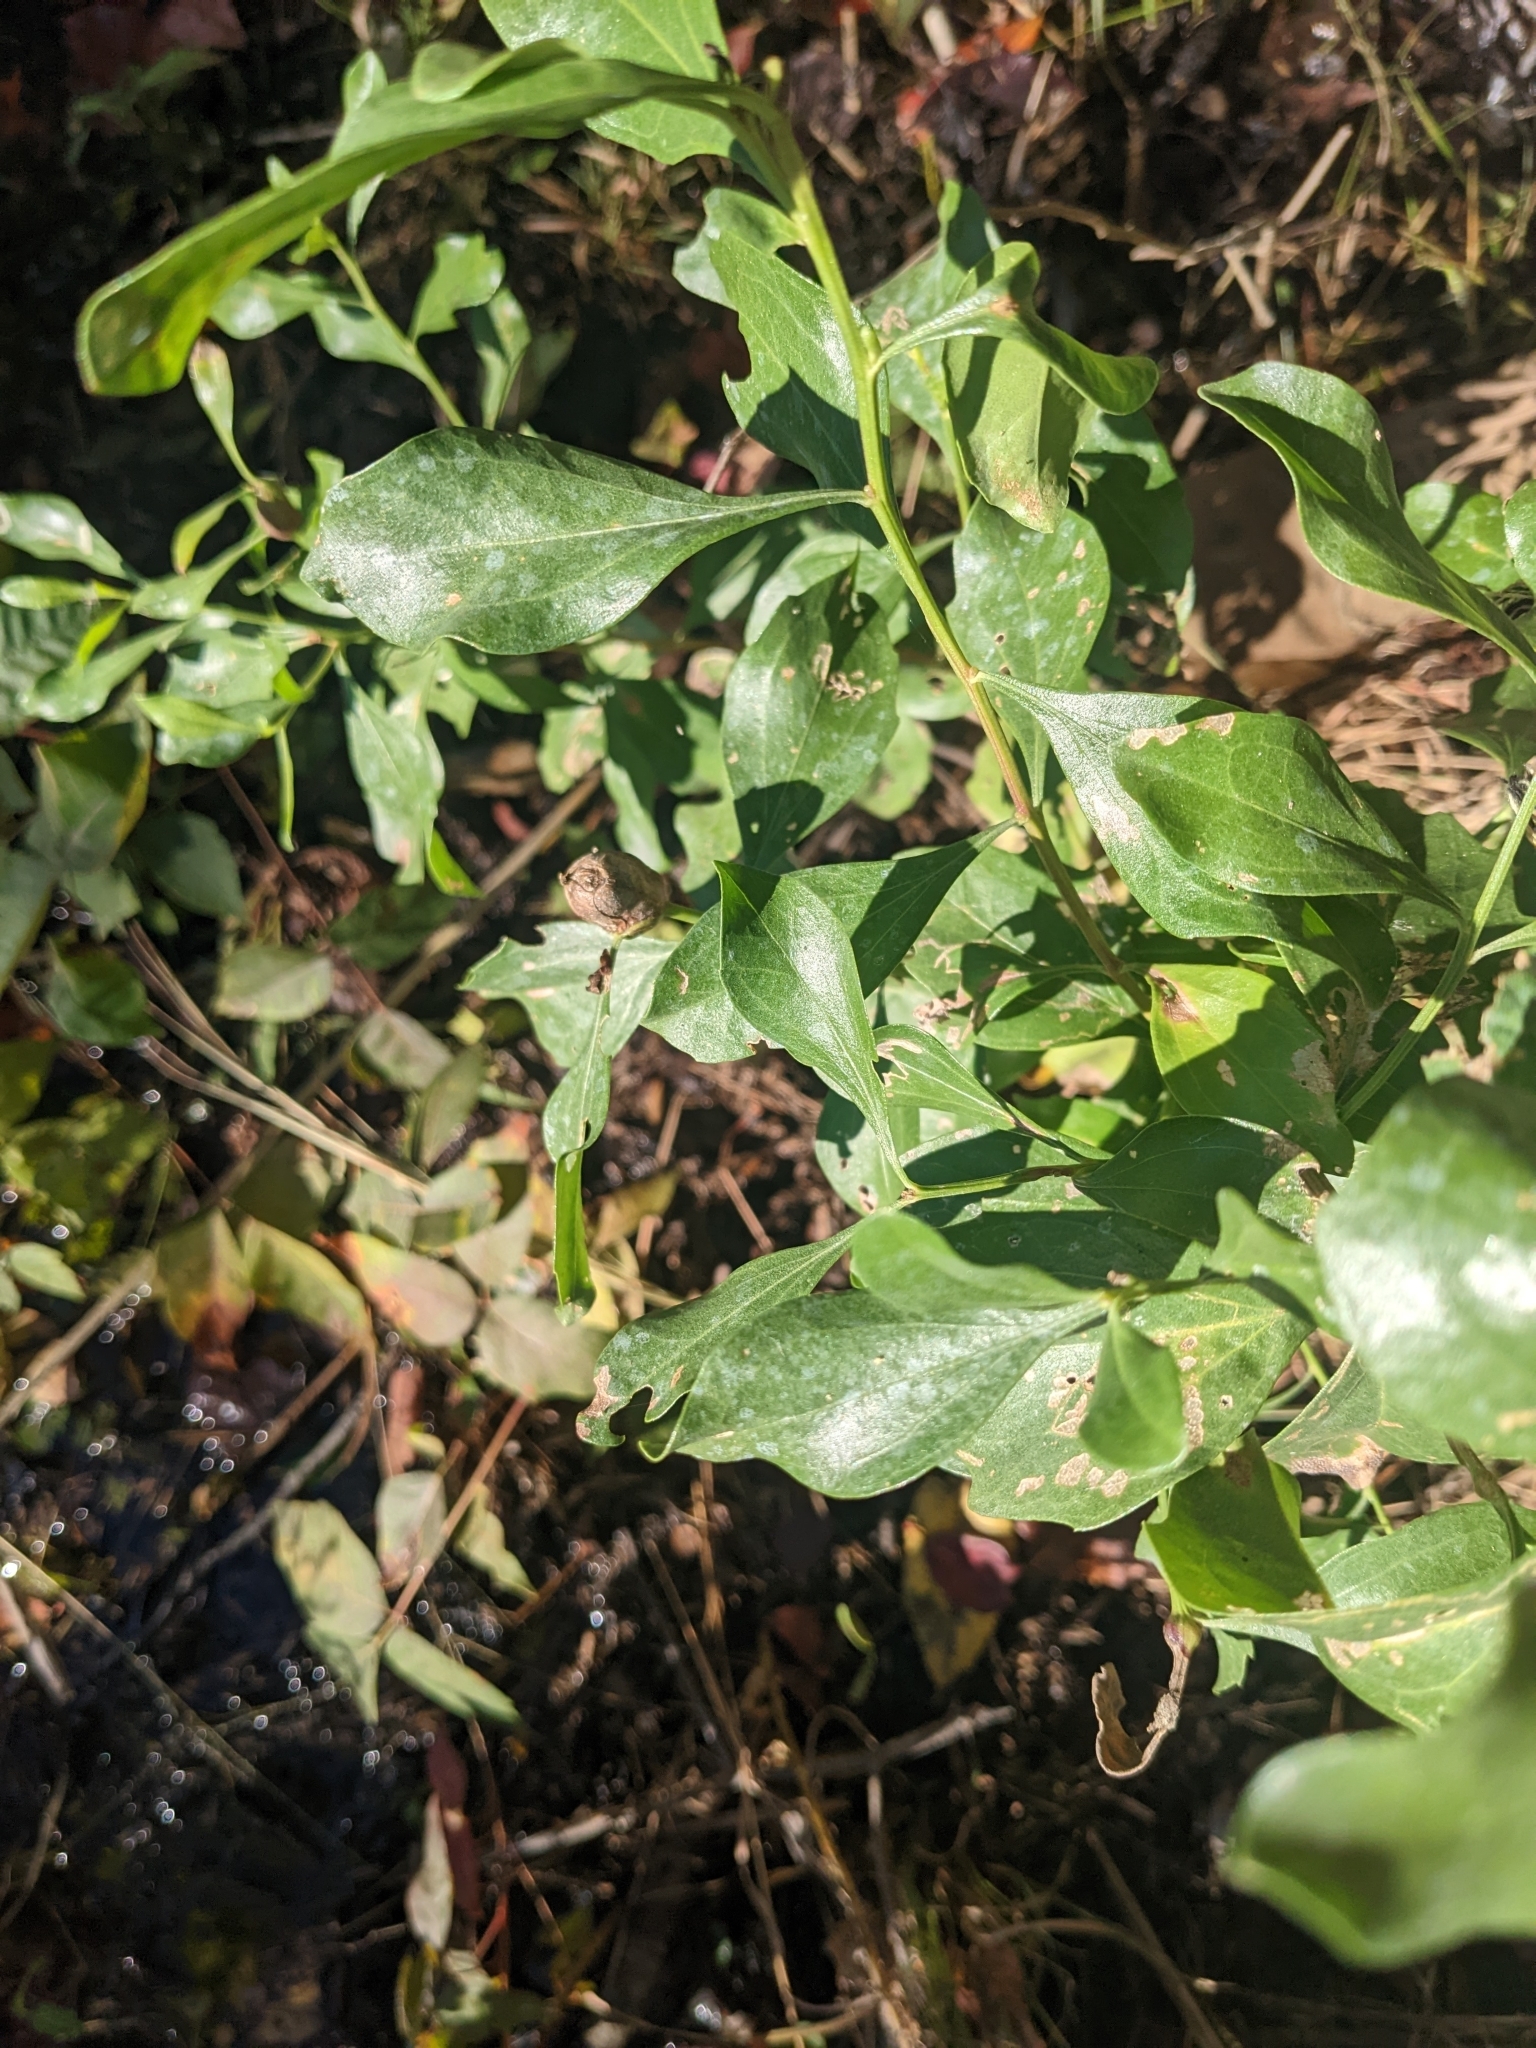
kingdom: Plantae
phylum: Tracheophyta
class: Magnoliopsida
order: Asterales
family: Asteraceae
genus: Baccharis
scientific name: Baccharis halimifolia
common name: Eastern baccharis
